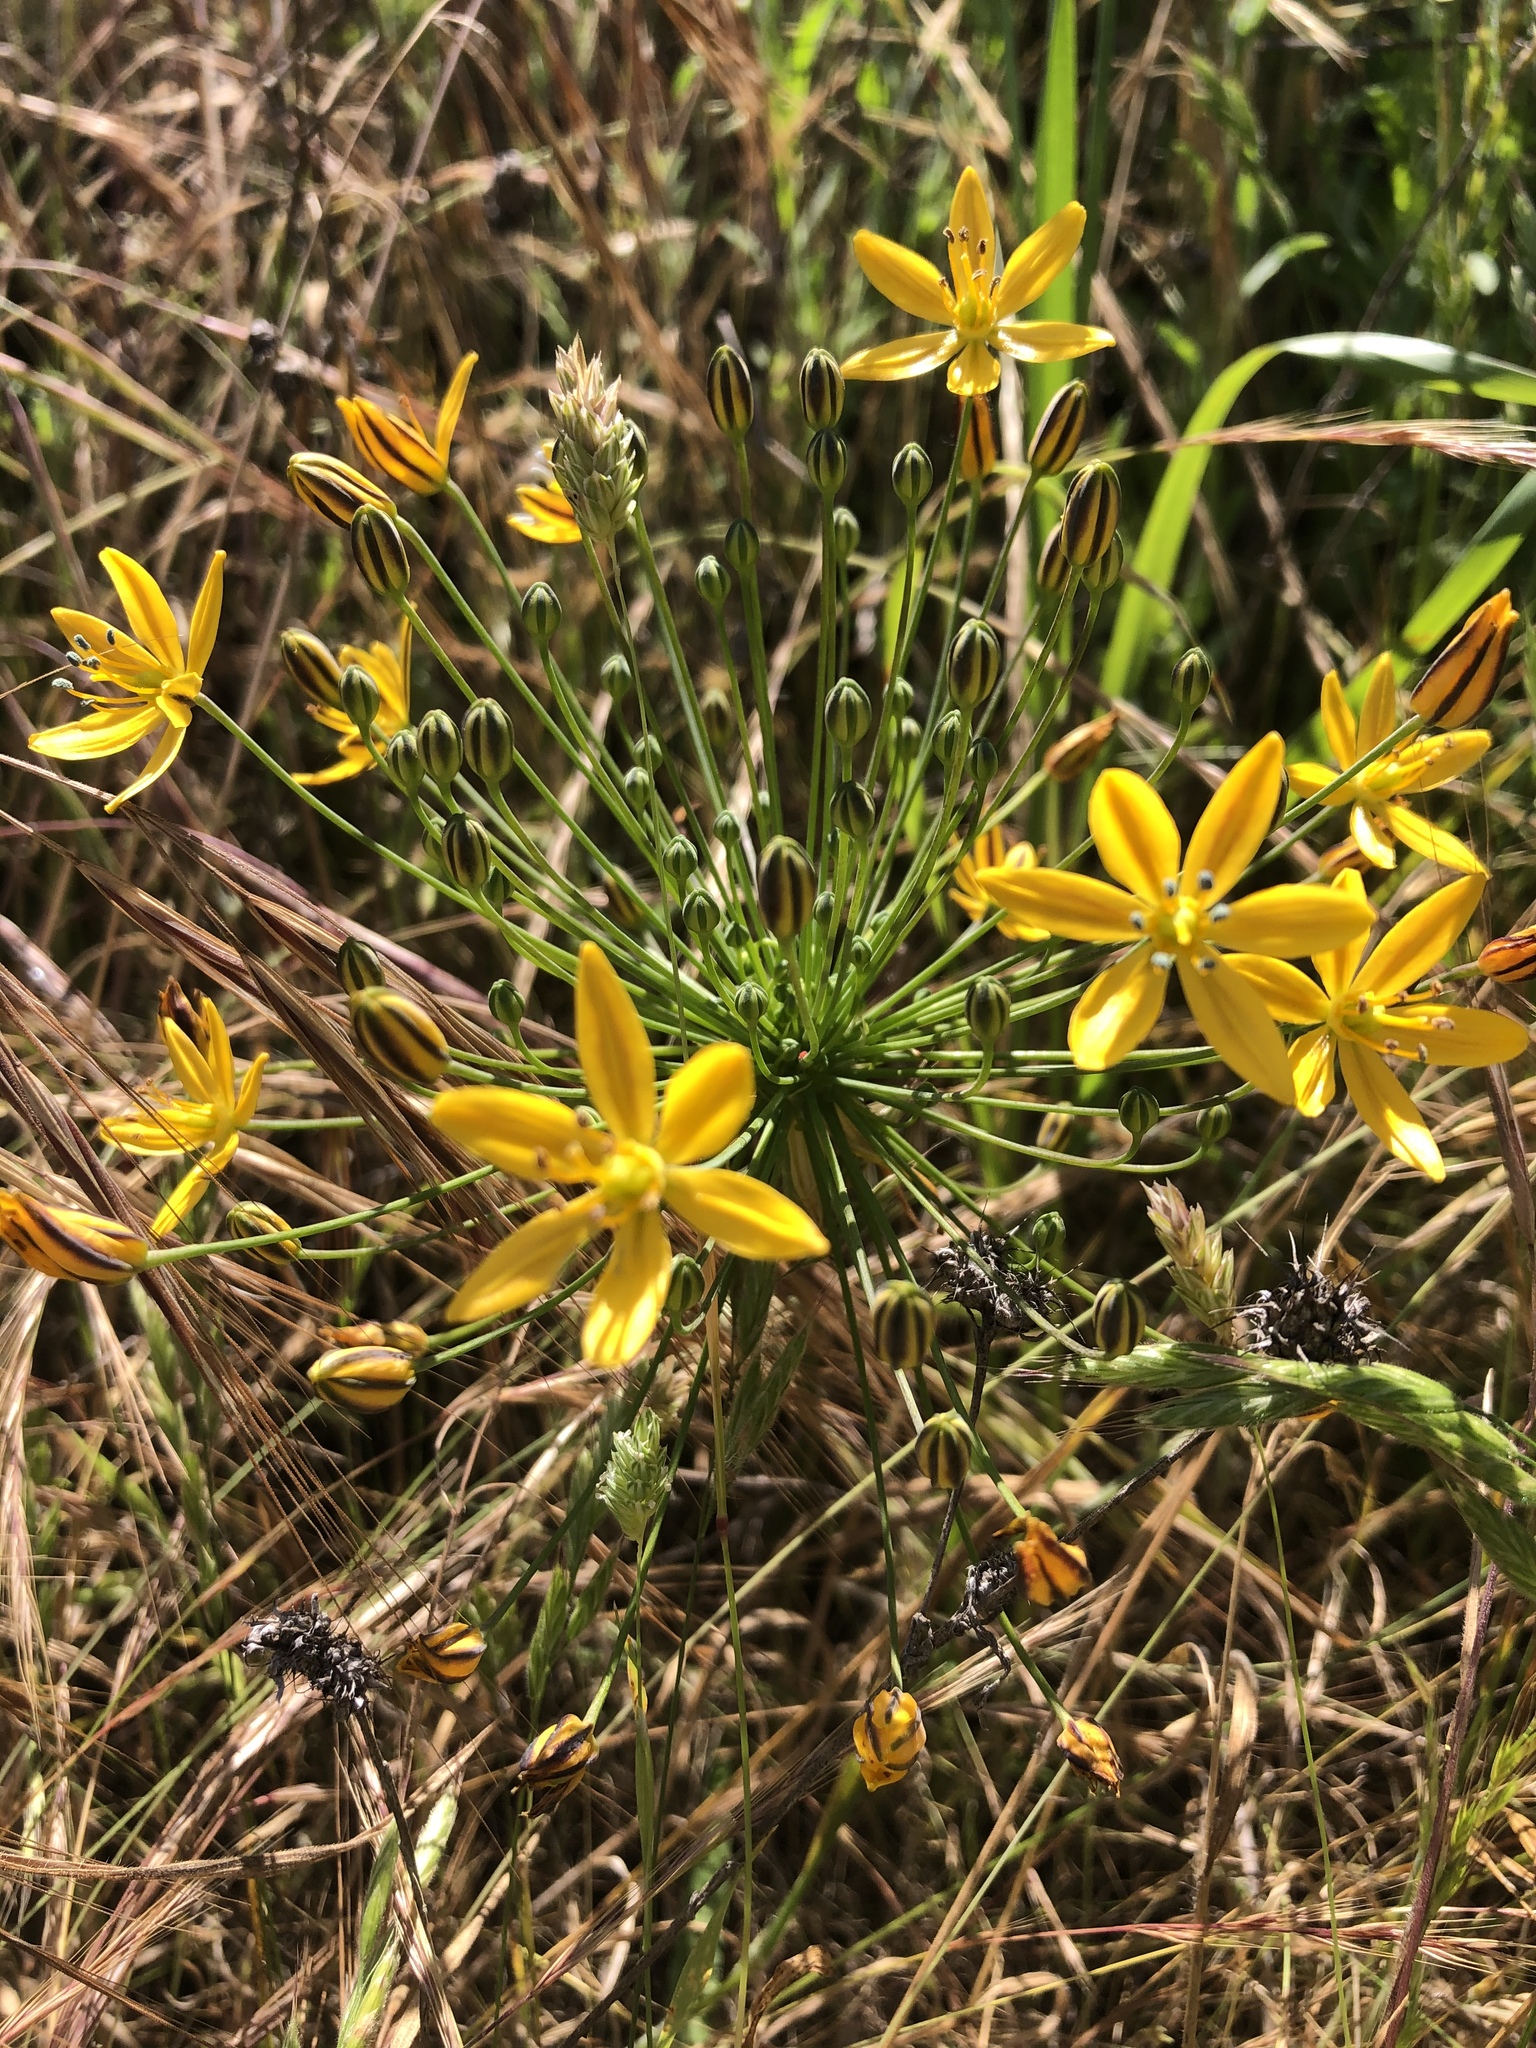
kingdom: Plantae
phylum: Tracheophyta
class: Liliopsida
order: Asparagales
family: Asparagaceae
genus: Bloomeria
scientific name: Bloomeria crocea
